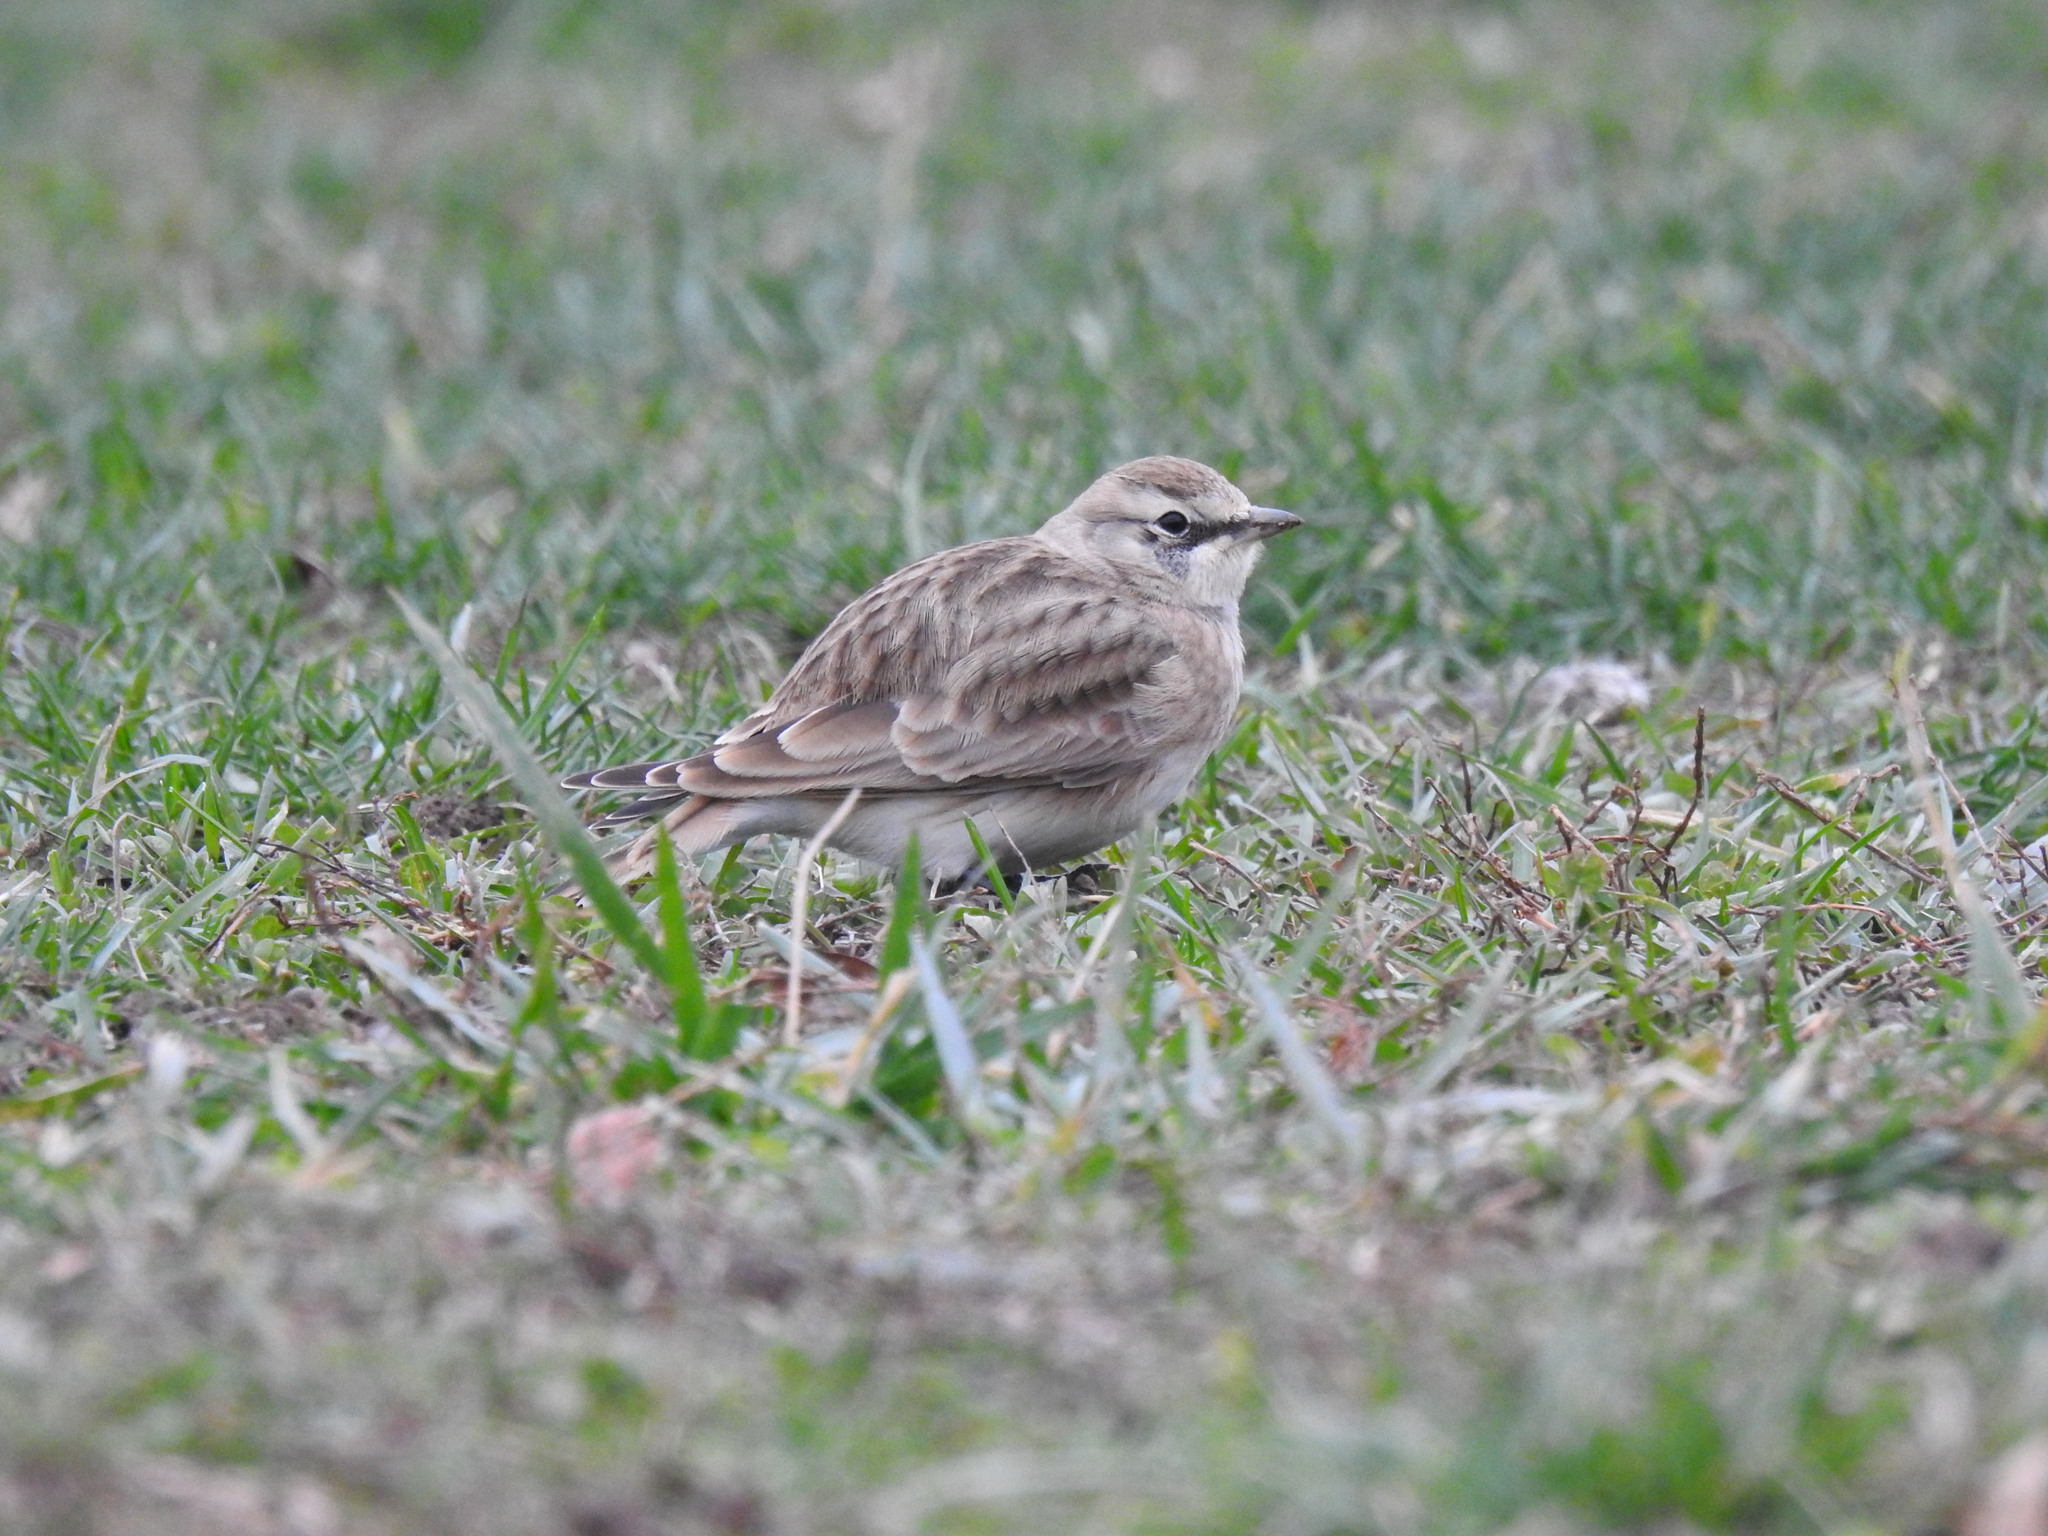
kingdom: Animalia
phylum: Chordata
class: Aves
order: Passeriformes
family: Alaudidae
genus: Eremophila
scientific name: Eremophila alpestris
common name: Horned lark
